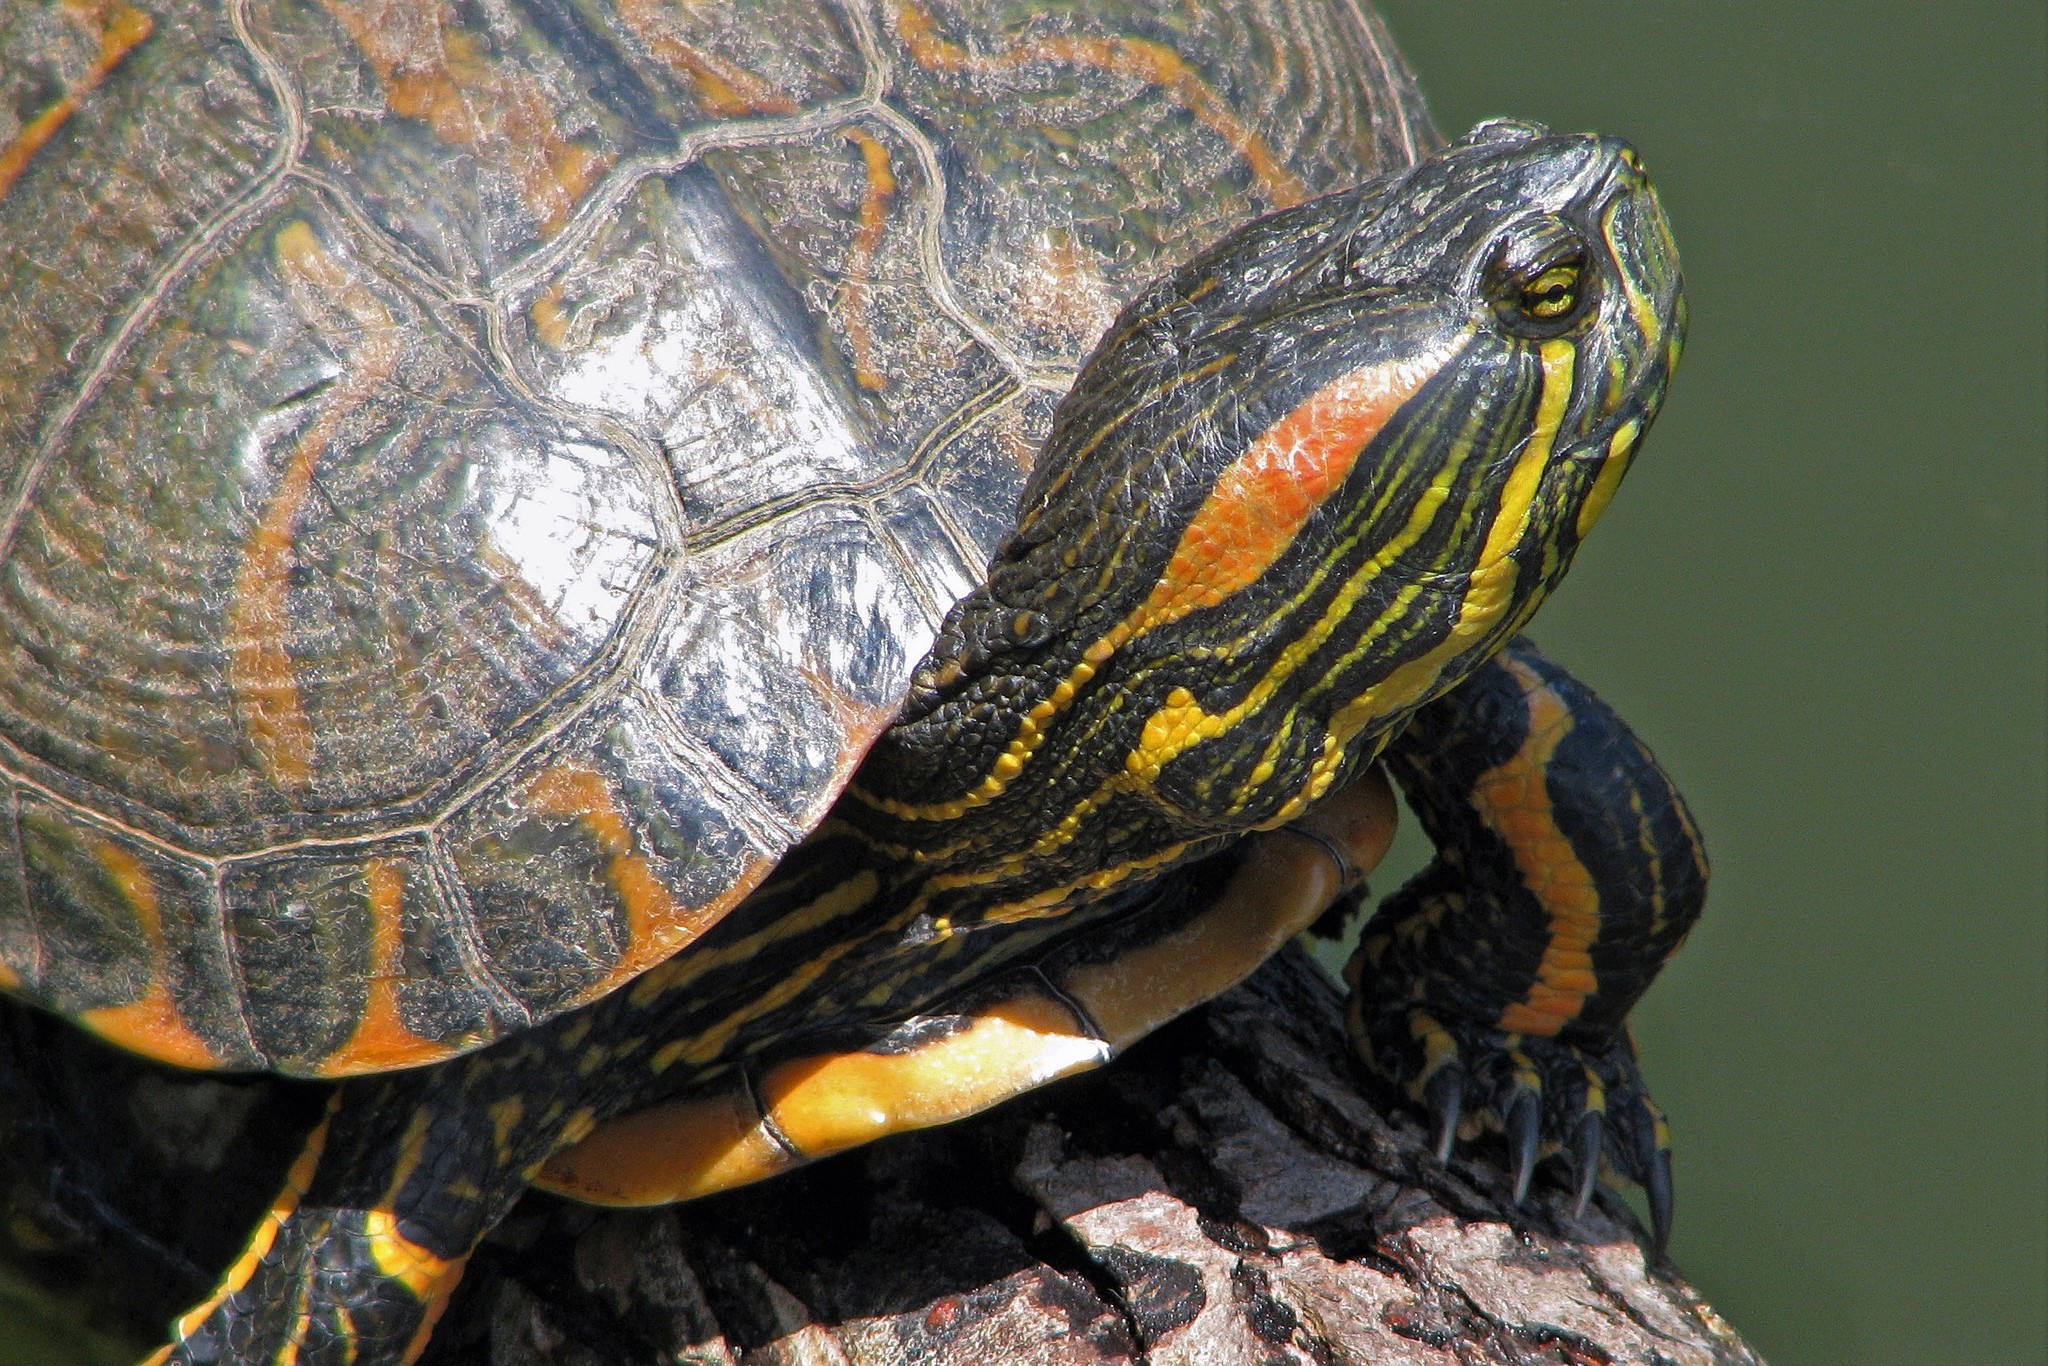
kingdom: Animalia
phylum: Chordata
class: Testudines
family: Emydidae
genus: Trachemys
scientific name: Trachemys dorbigni
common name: Black-bellied slider
